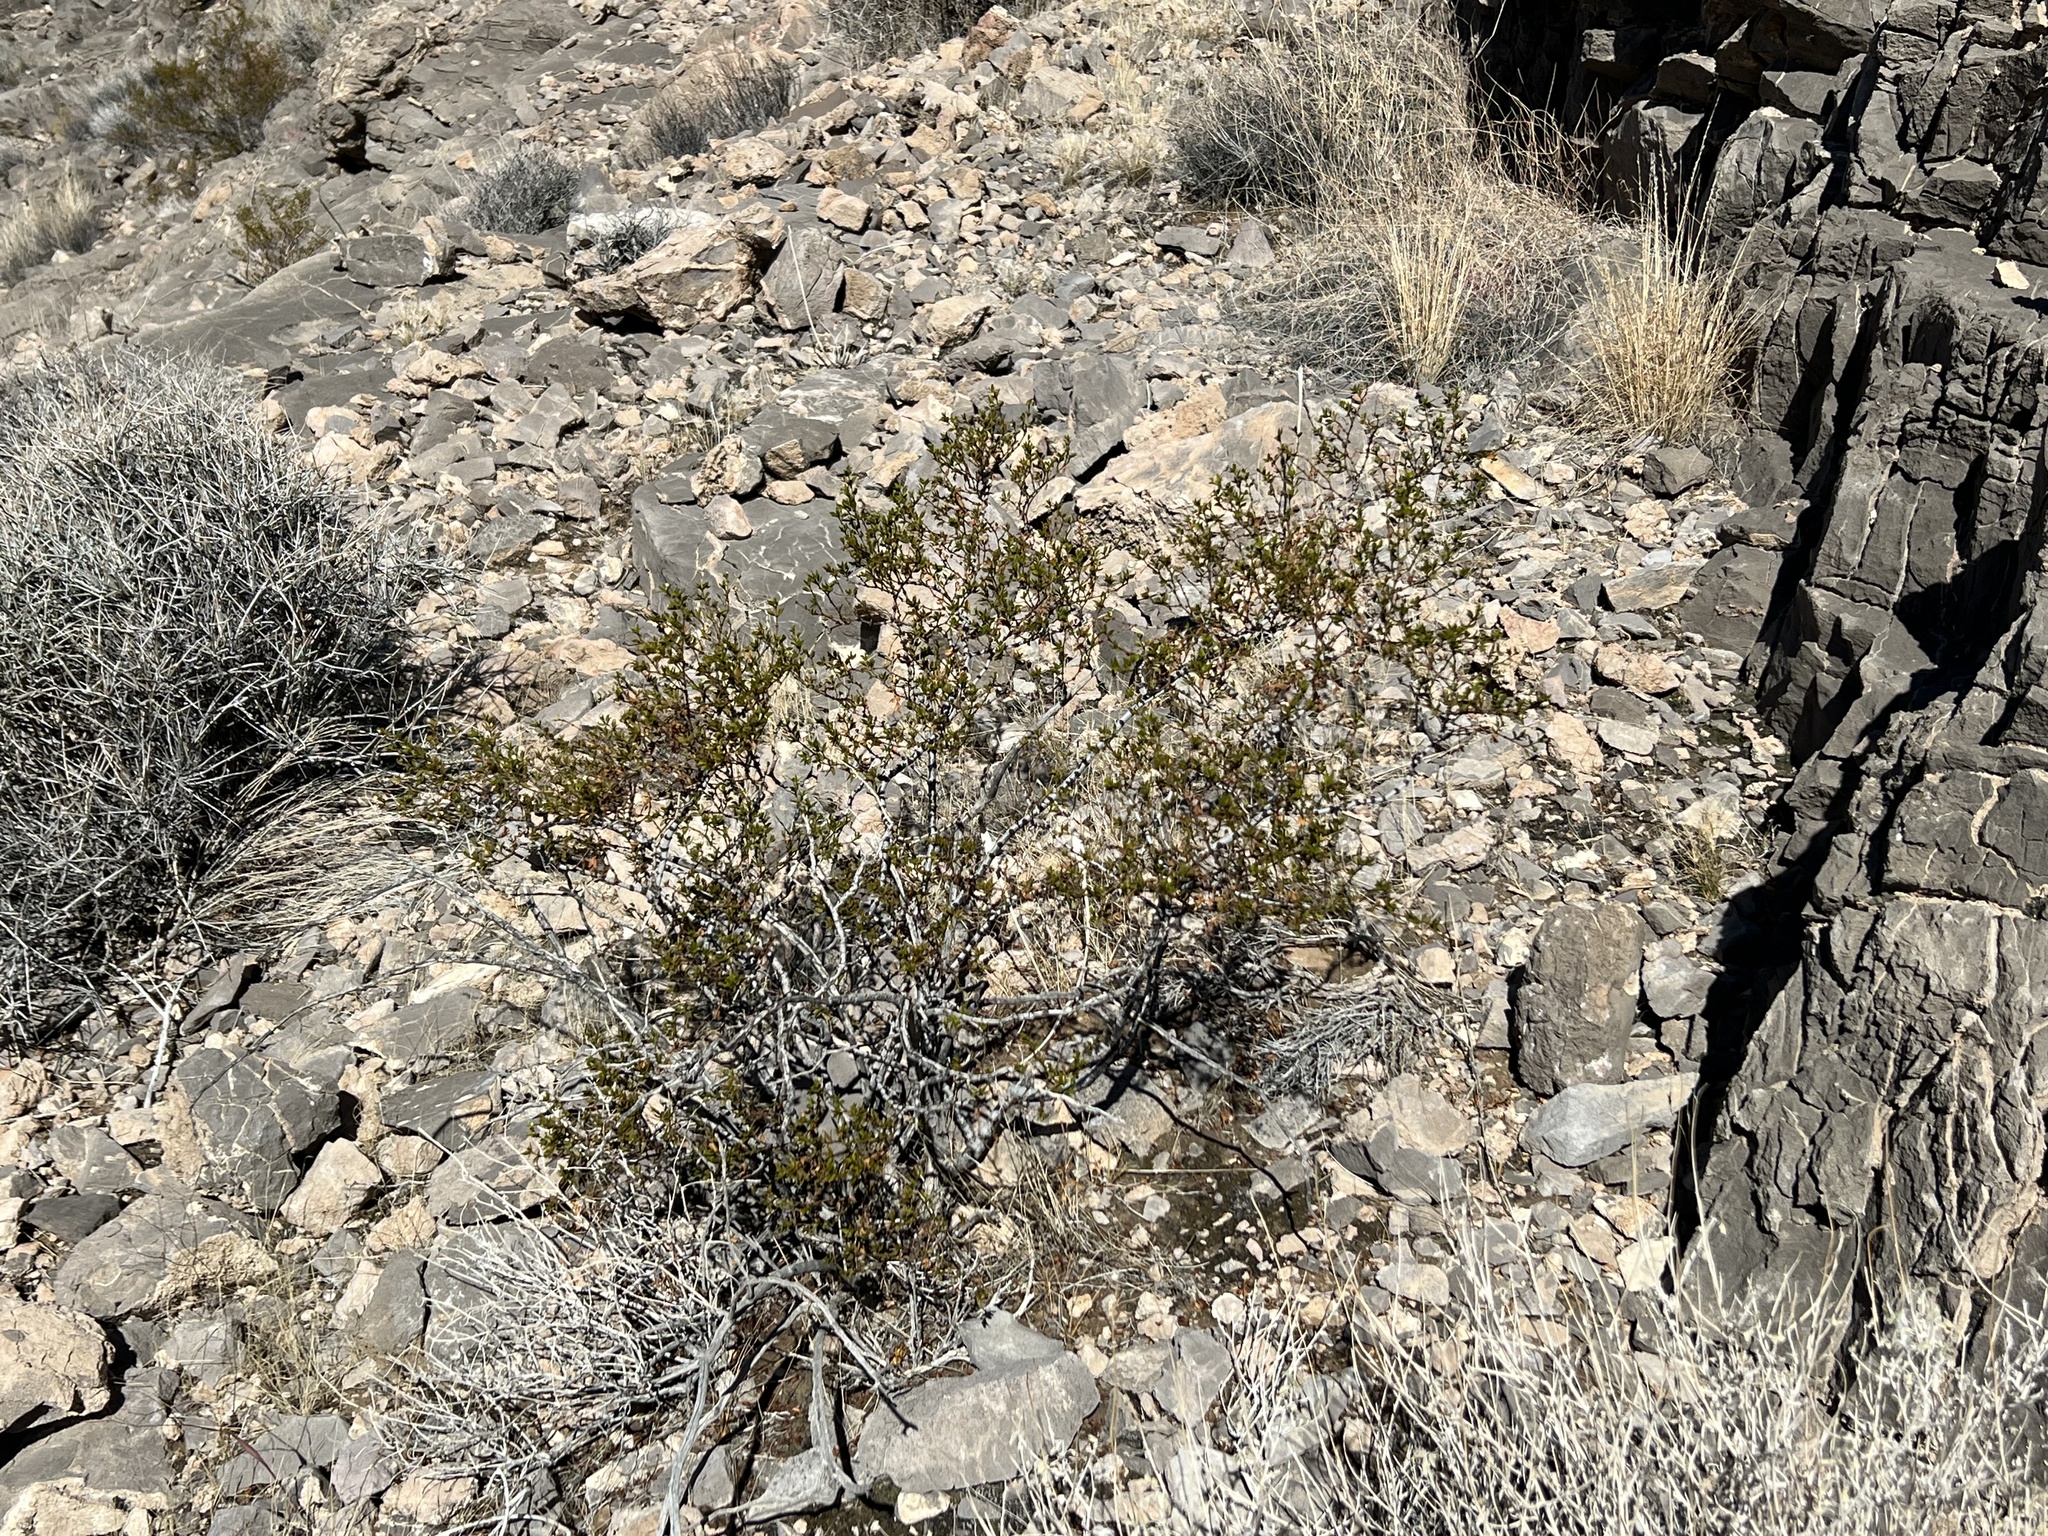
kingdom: Plantae
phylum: Tracheophyta
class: Magnoliopsida
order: Zygophyllales
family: Zygophyllaceae
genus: Larrea
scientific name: Larrea tridentata
